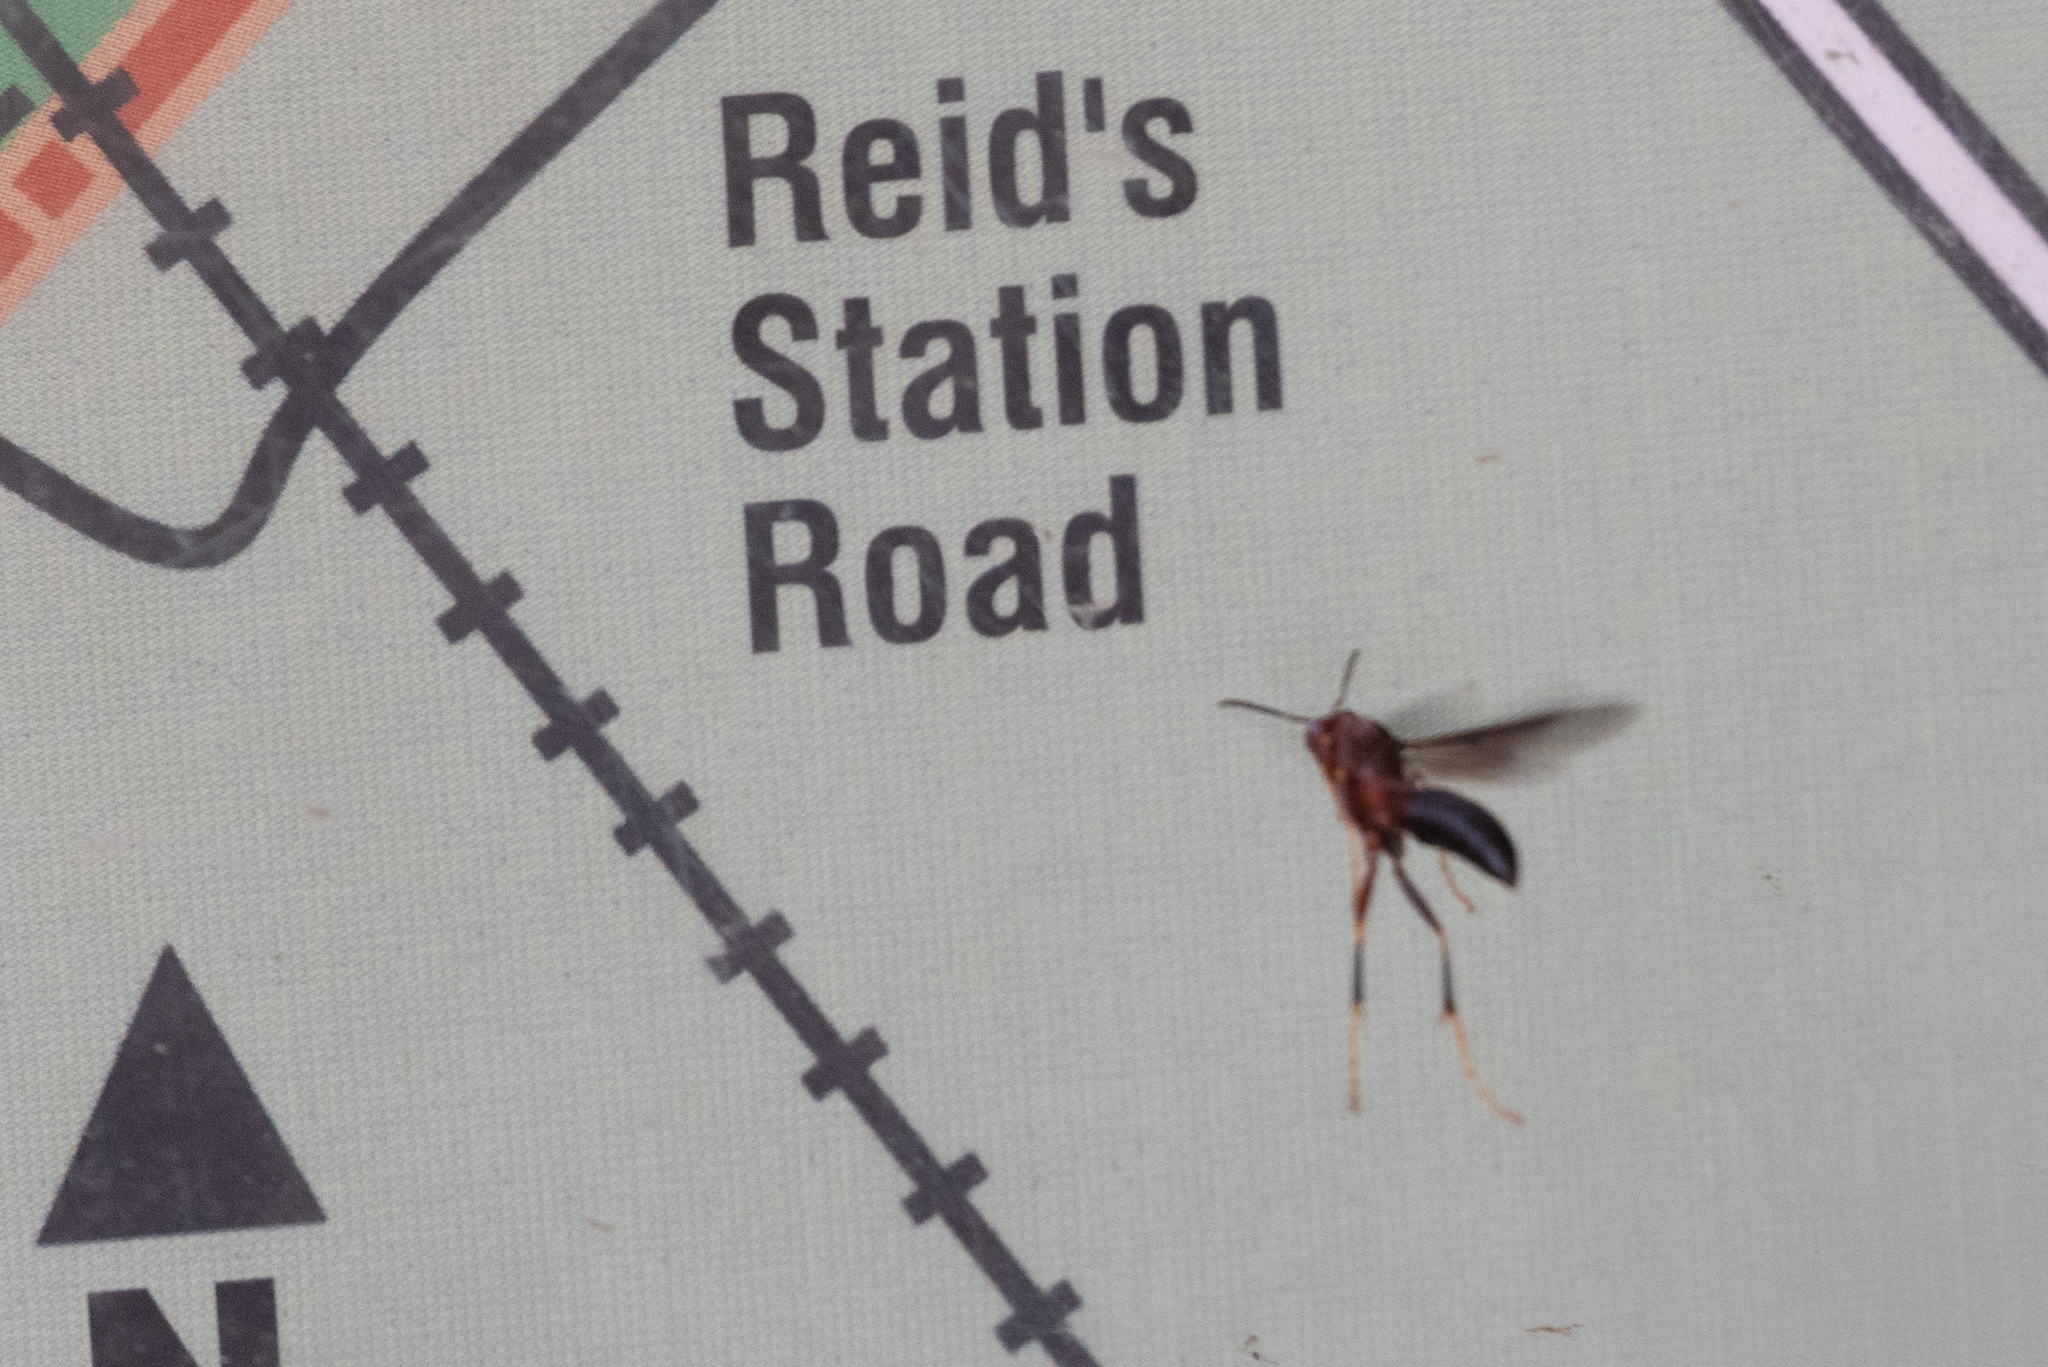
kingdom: Animalia
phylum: Arthropoda
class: Insecta
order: Hymenoptera
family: Eumenidae
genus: Polistes
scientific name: Polistes metricus
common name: Metric paper wasp
